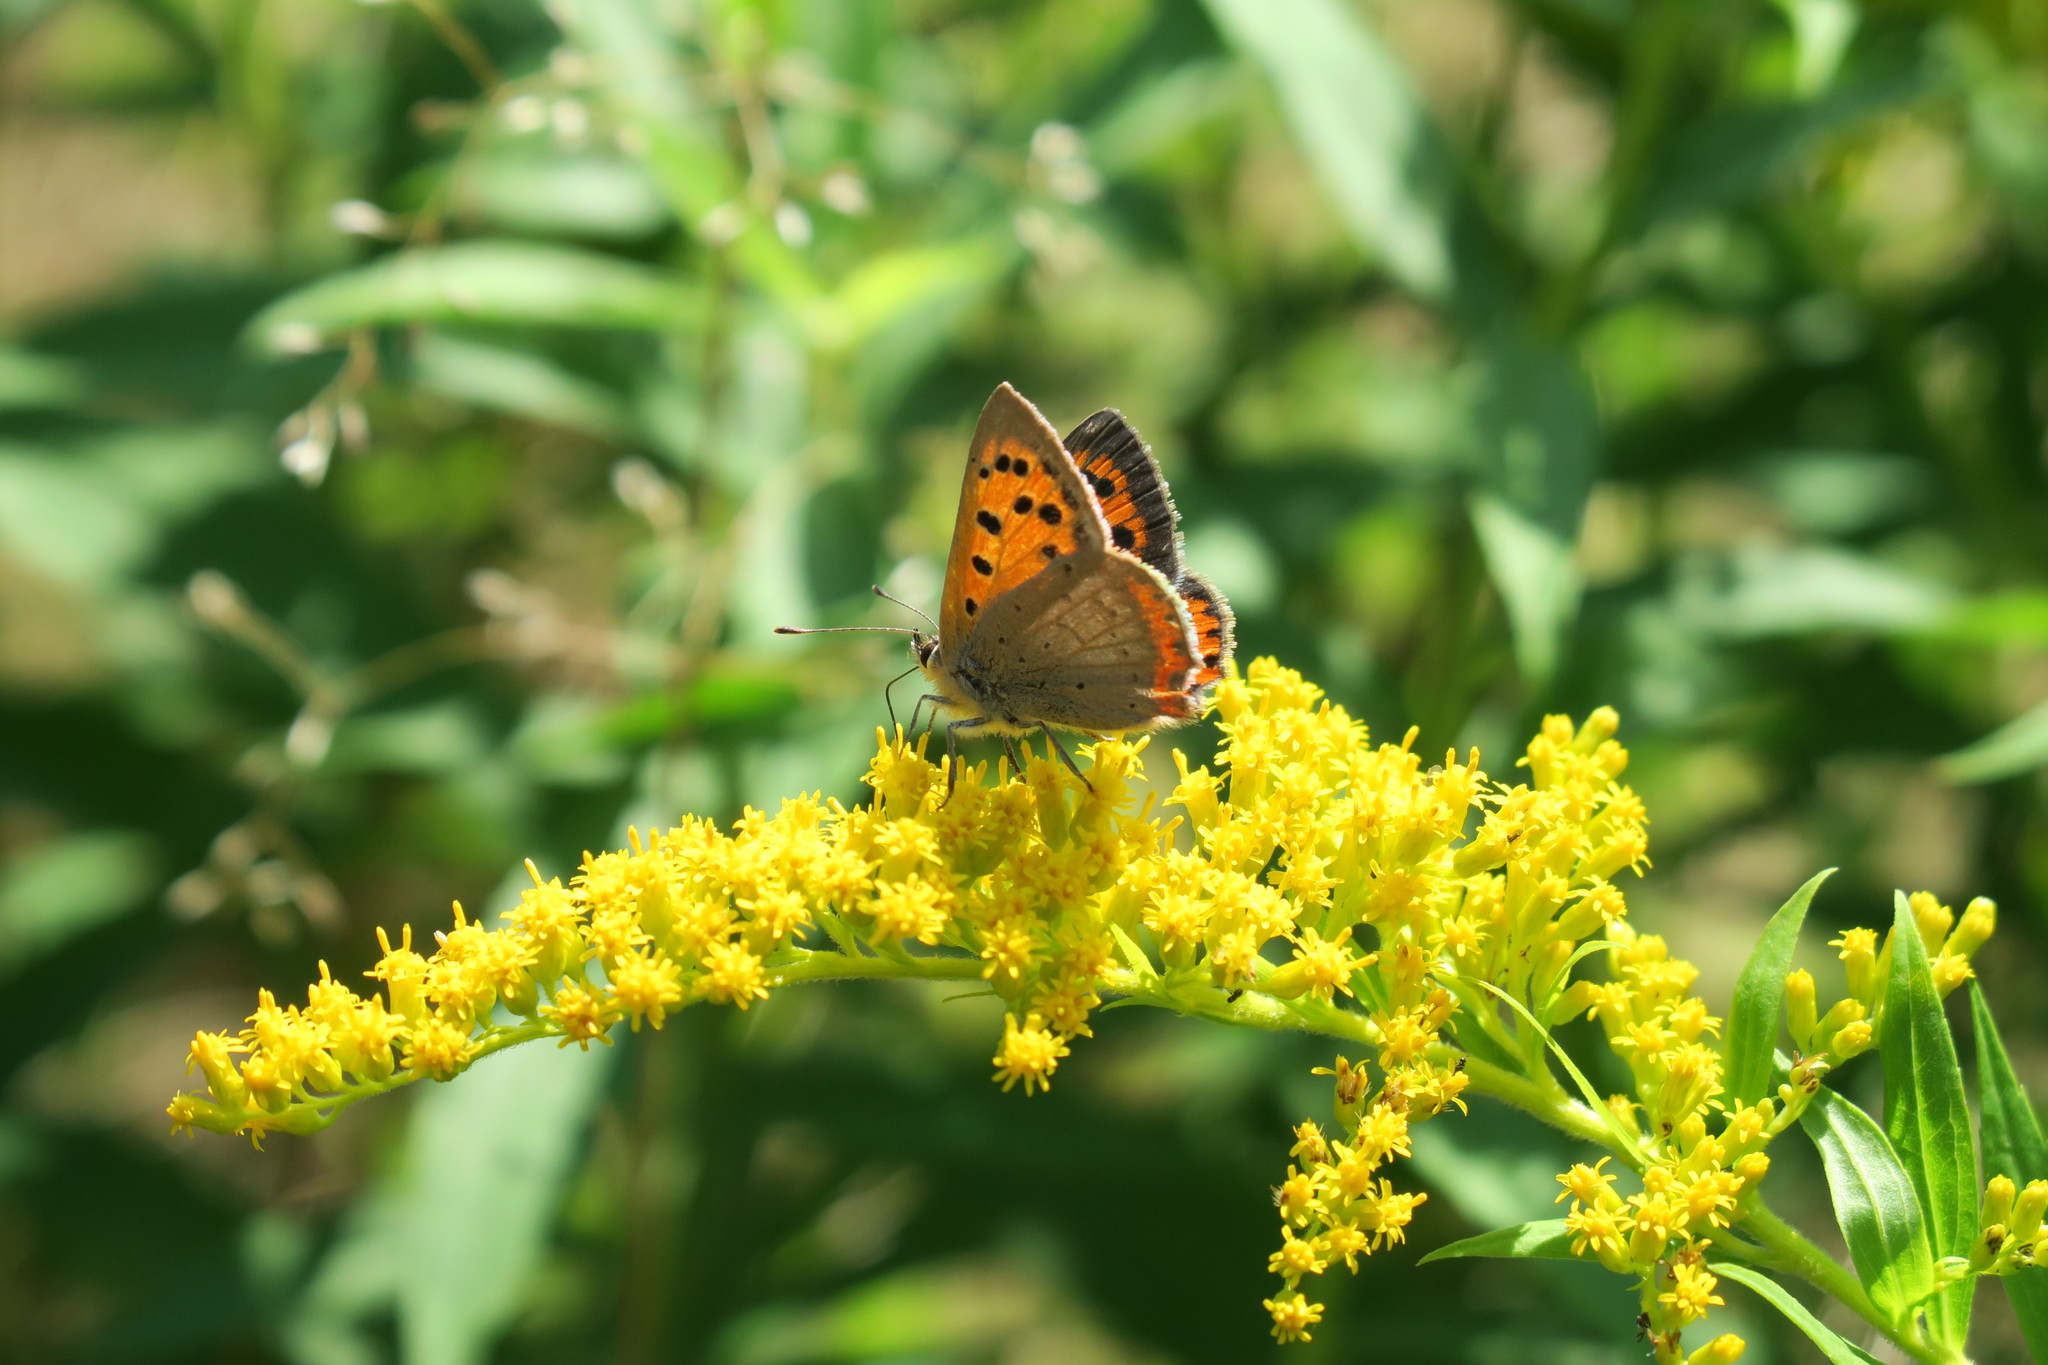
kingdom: Animalia
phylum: Arthropoda
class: Insecta
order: Lepidoptera
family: Lycaenidae
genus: Lycaena
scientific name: Lycaena phlaeas
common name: Small copper
